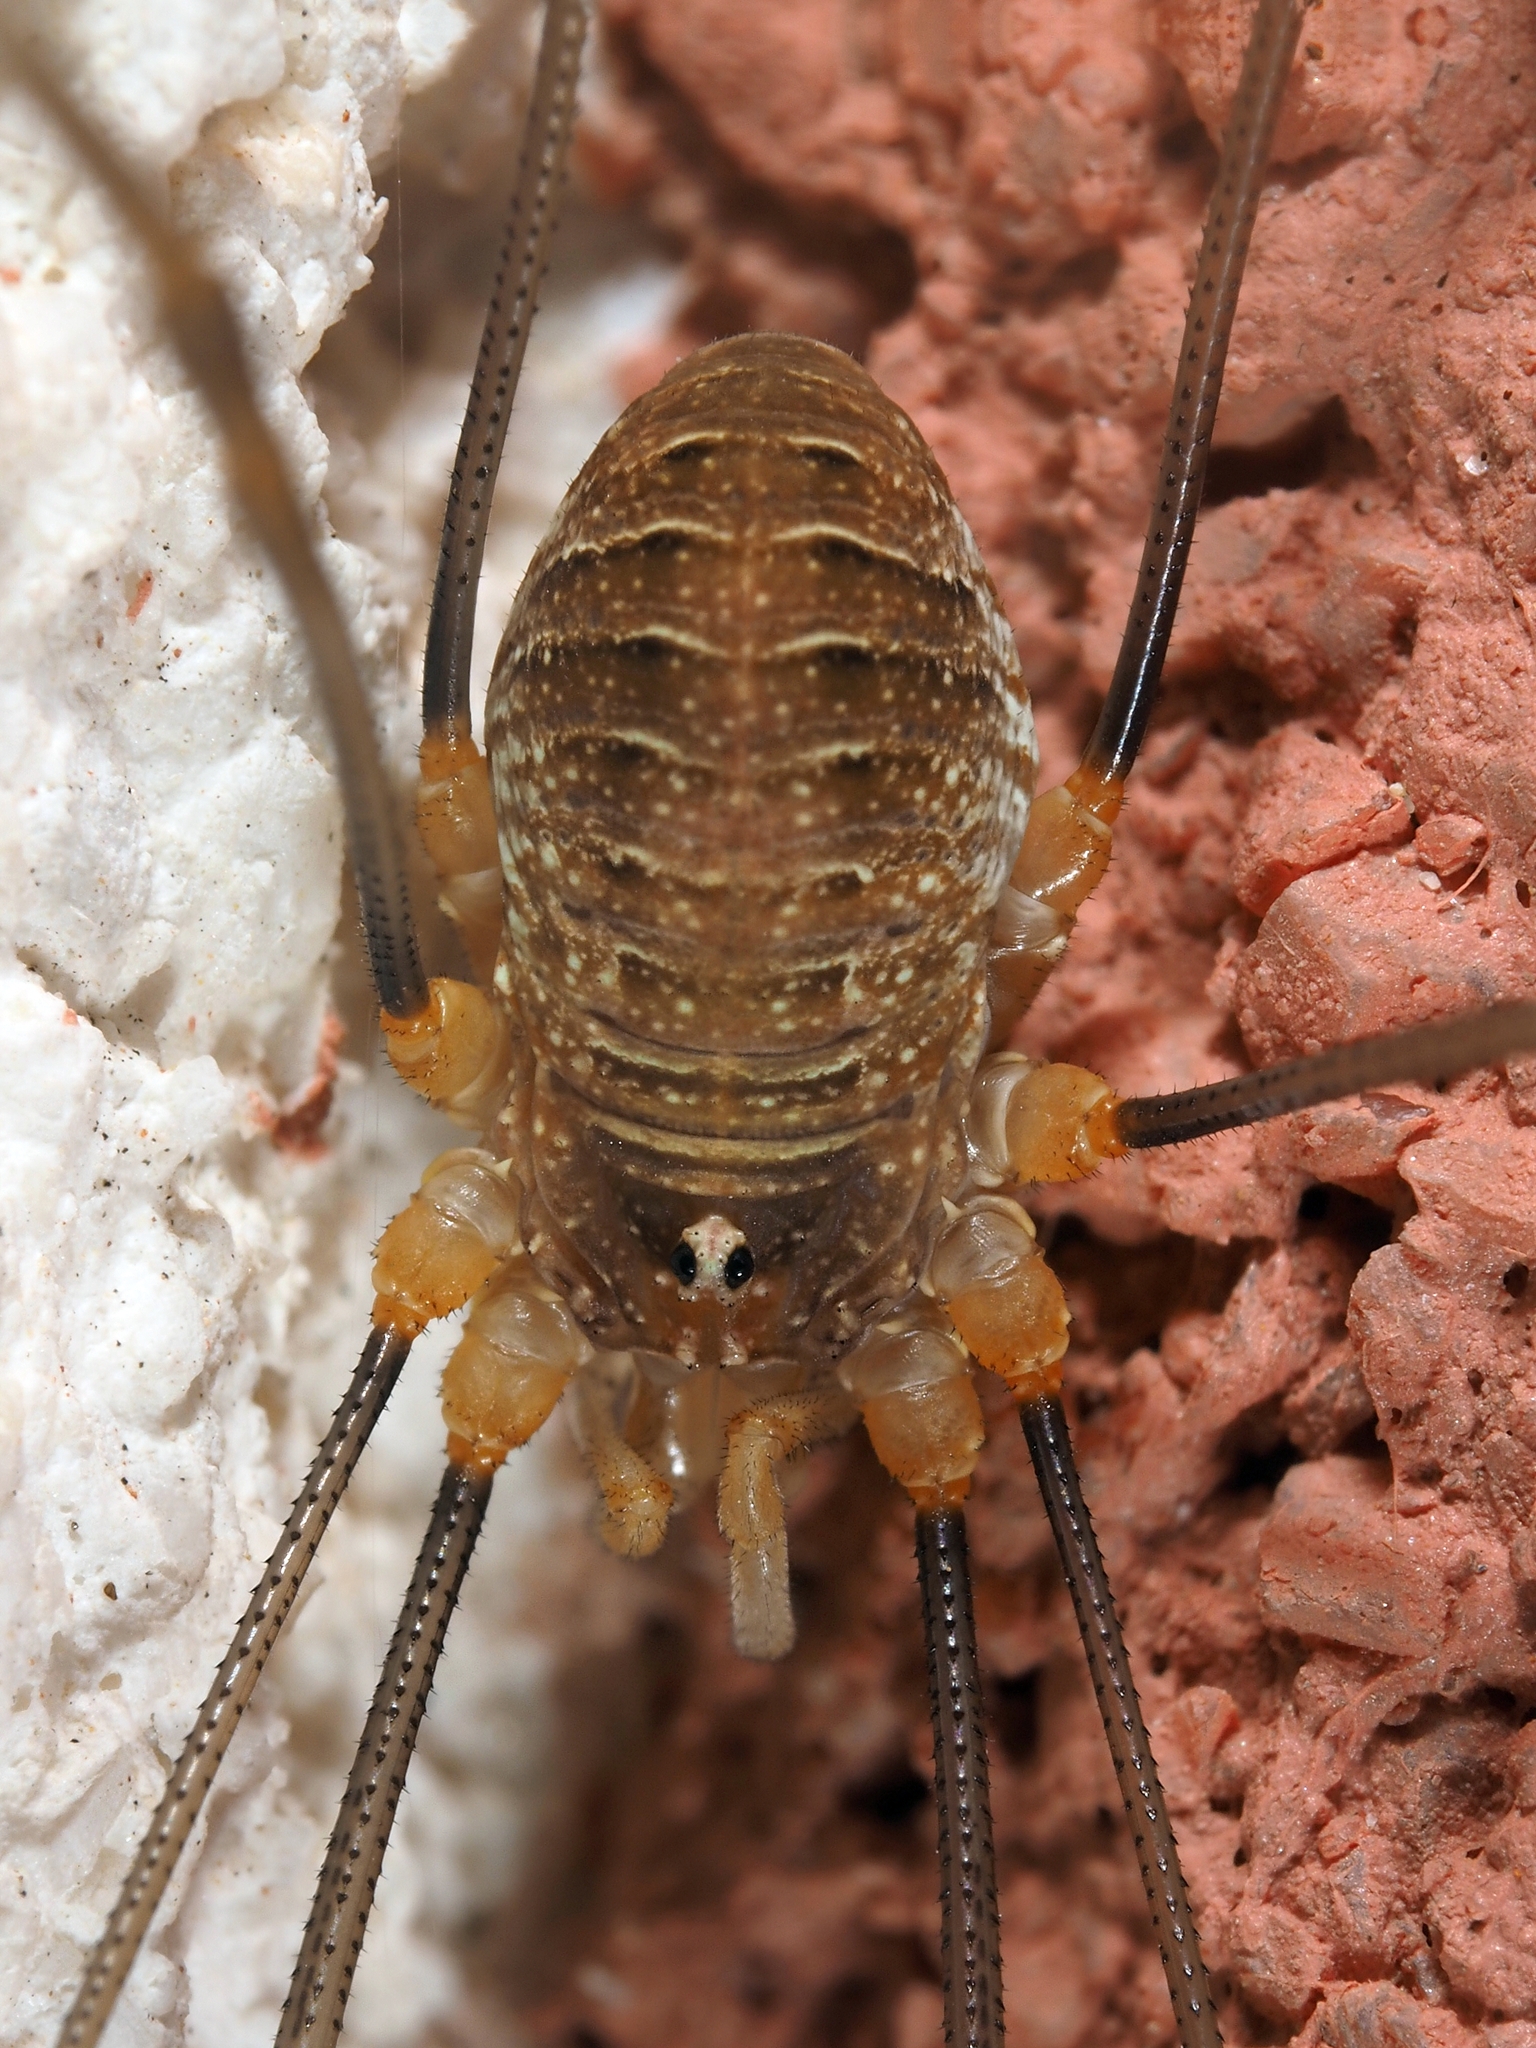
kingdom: Animalia
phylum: Arthropoda
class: Arachnida
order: Opiliones
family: Phalangiidae
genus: Opilio
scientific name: Opilio canestrinii
